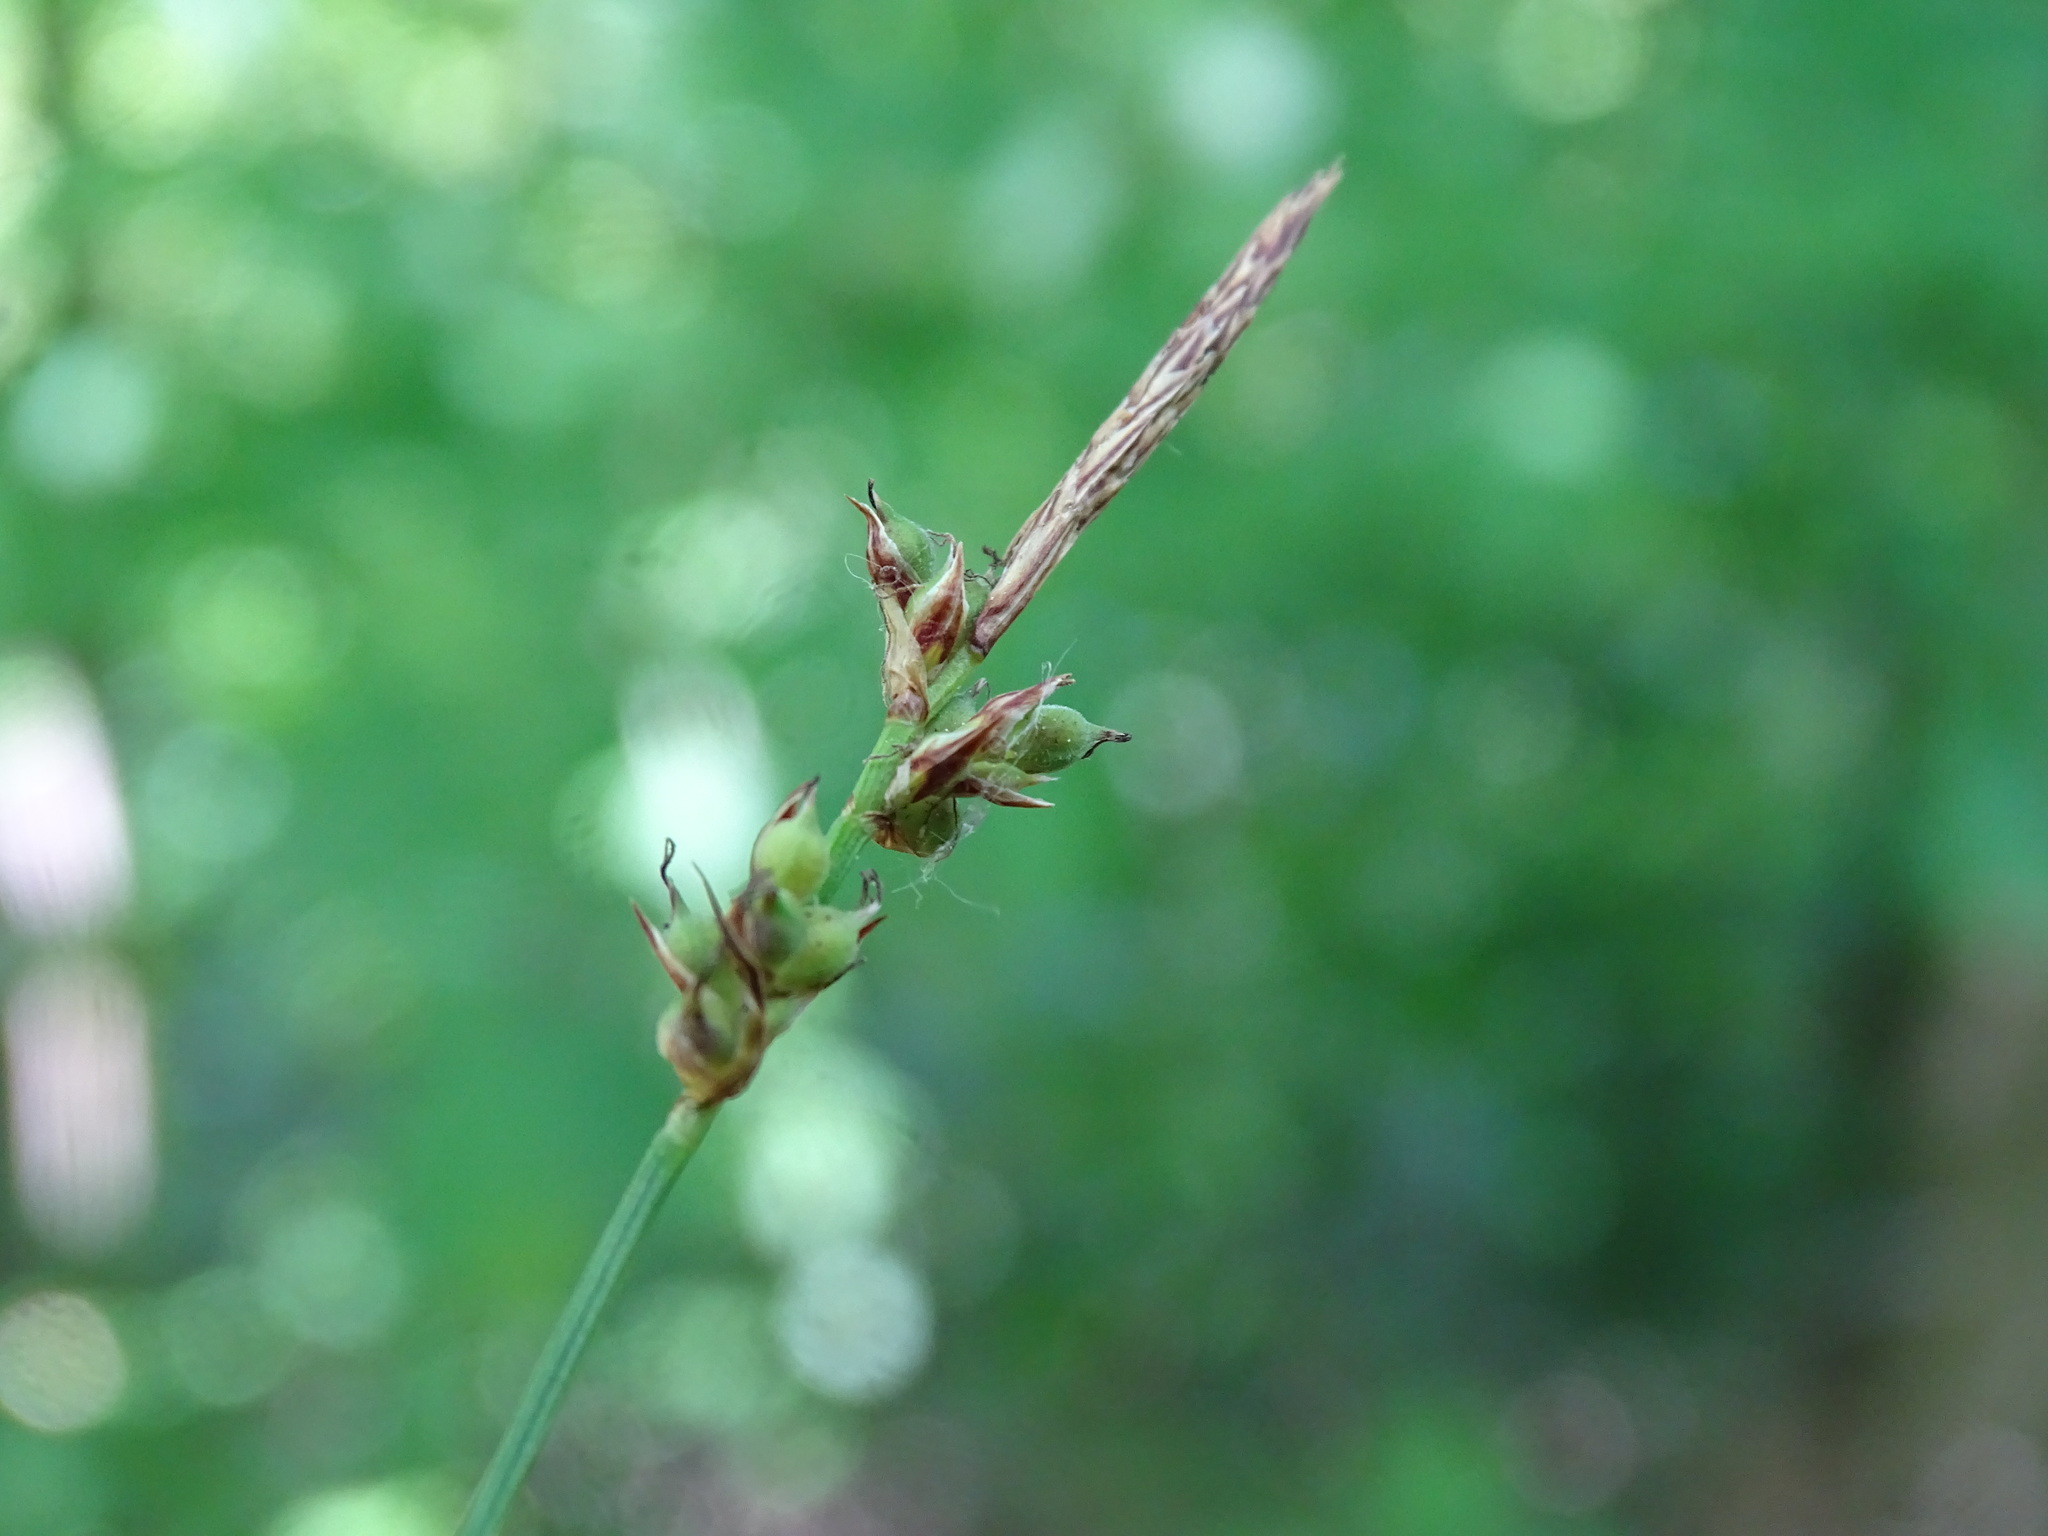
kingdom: Plantae
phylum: Tracheophyta
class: Liliopsida
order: Poales
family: Cyperaceae
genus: Carex
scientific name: Carex pensylvanica
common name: Common oak sedge
